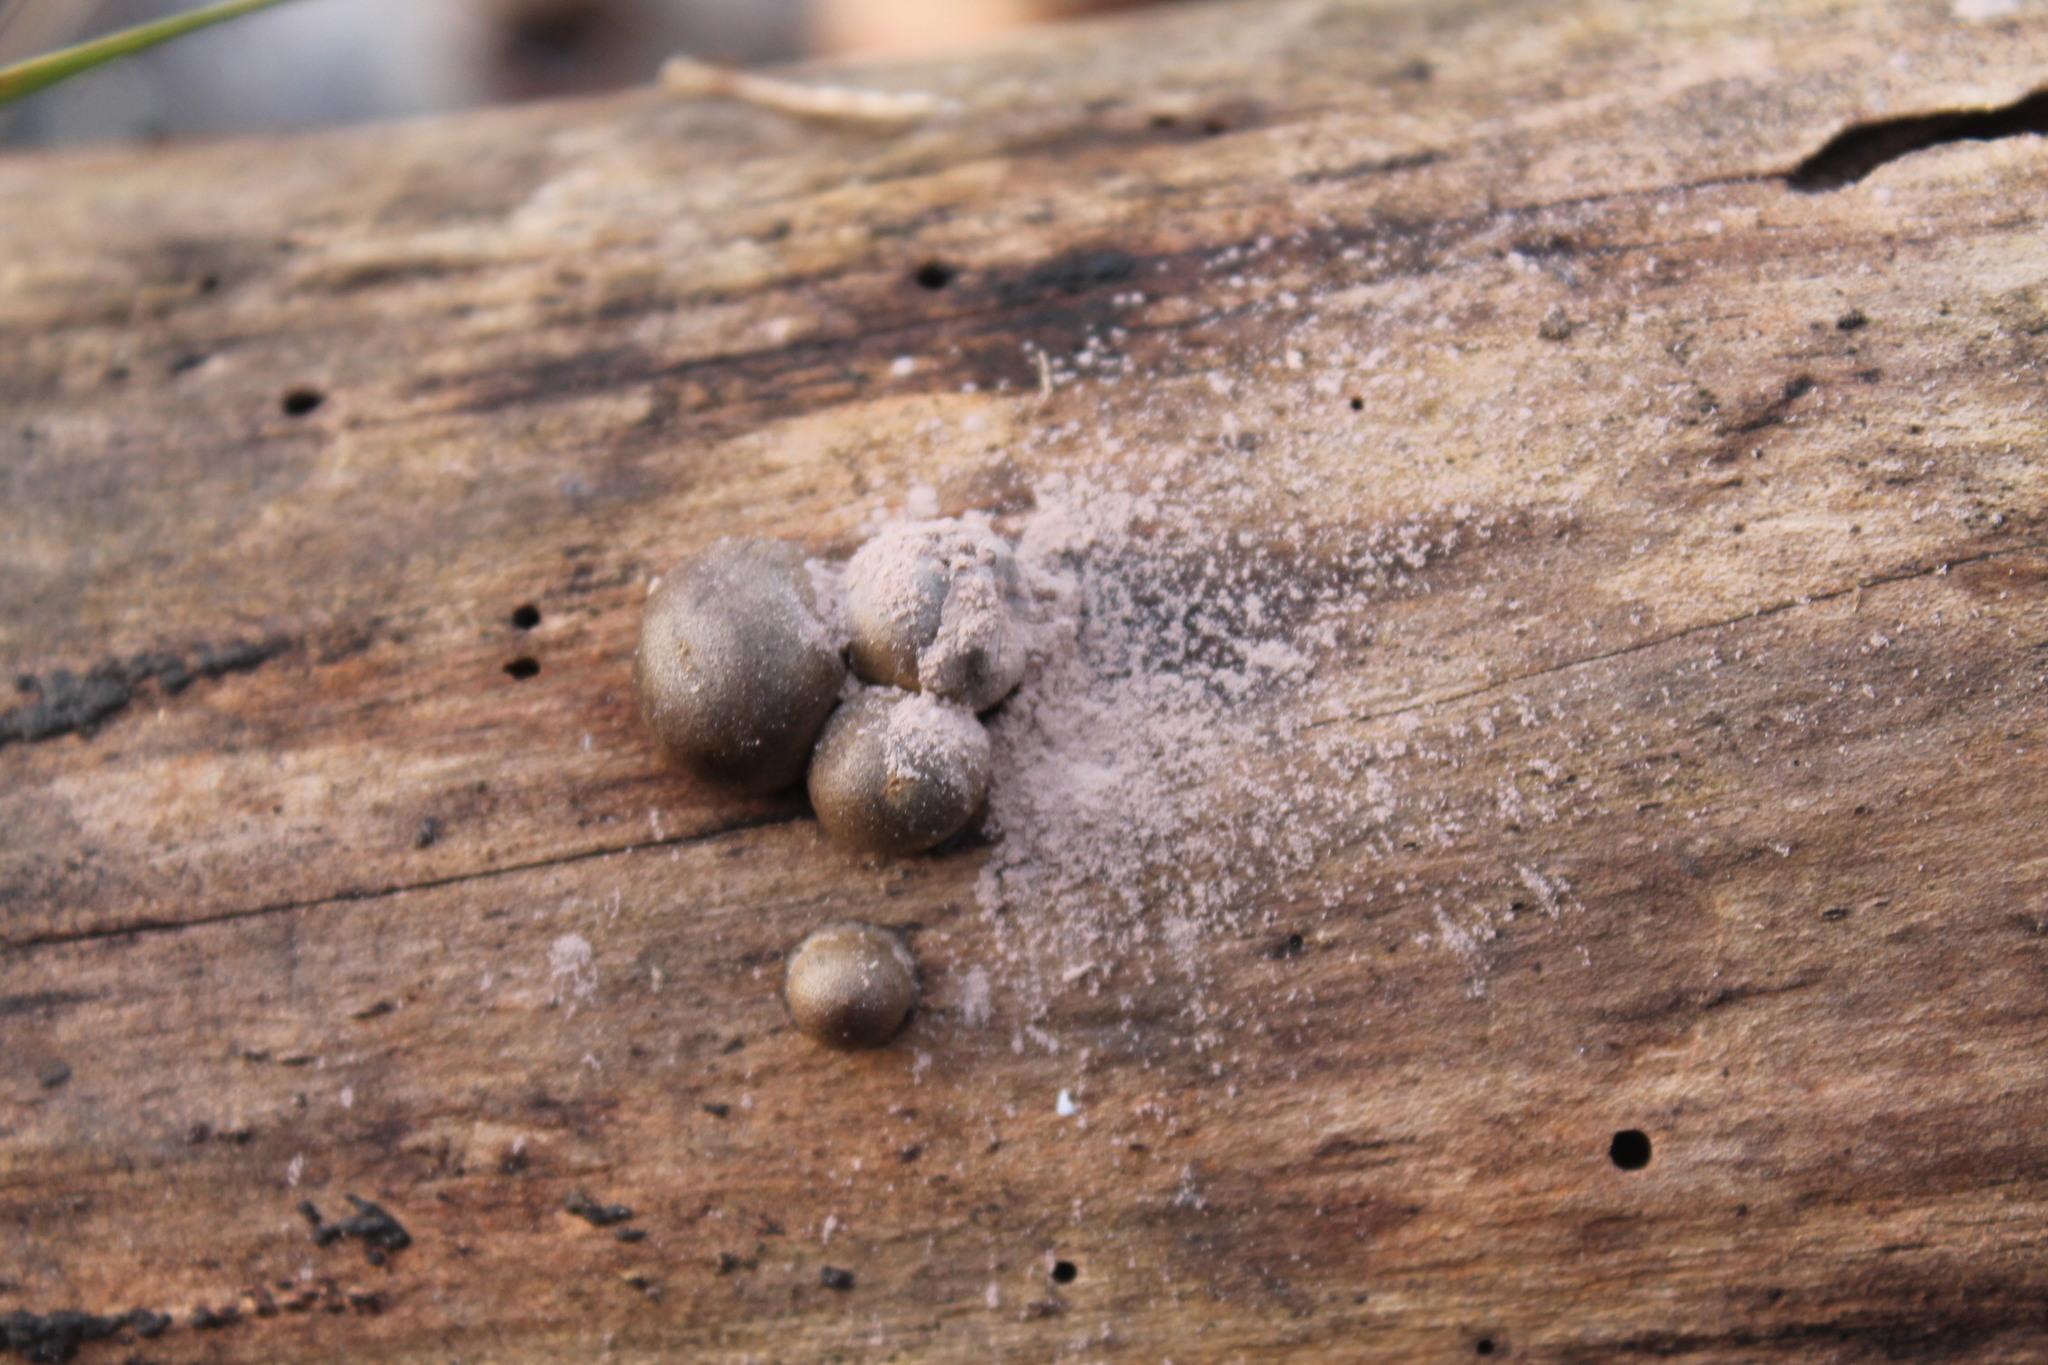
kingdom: Protozoa
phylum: Mycetozoa
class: Myxomycetes
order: Cribrariales
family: Tubiferaceae
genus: Lycogala
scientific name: Lycogala epidendrum
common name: Wolf's milk
